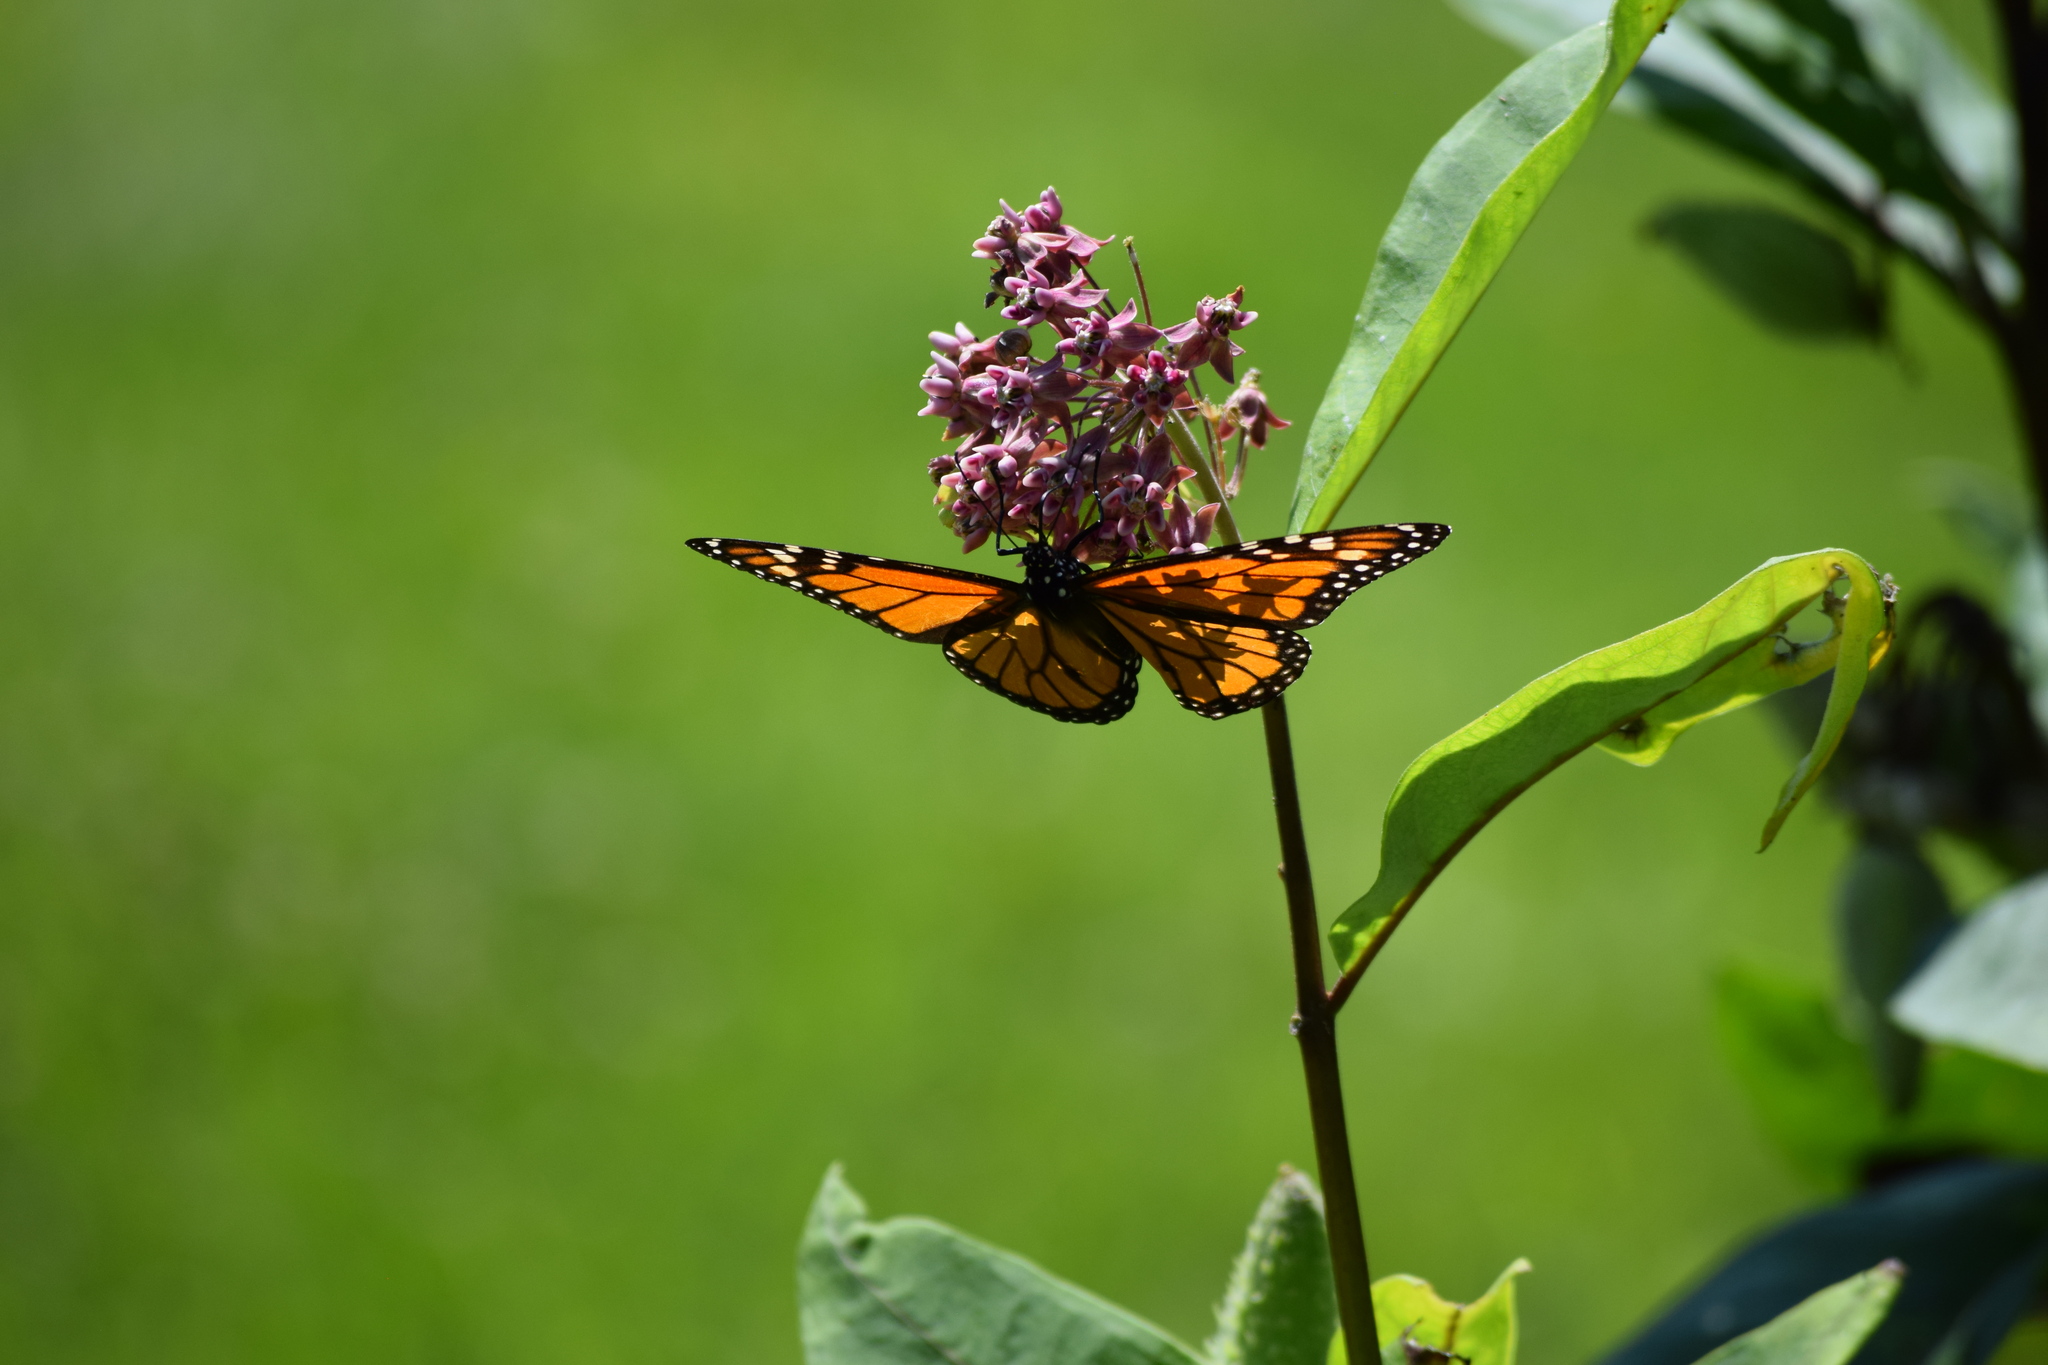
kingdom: Animalia
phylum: Arthropoda
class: Insecta
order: Lepidoptera
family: Nymphalidae
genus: Danaus
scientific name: Danaus plexippus
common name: Monarch
